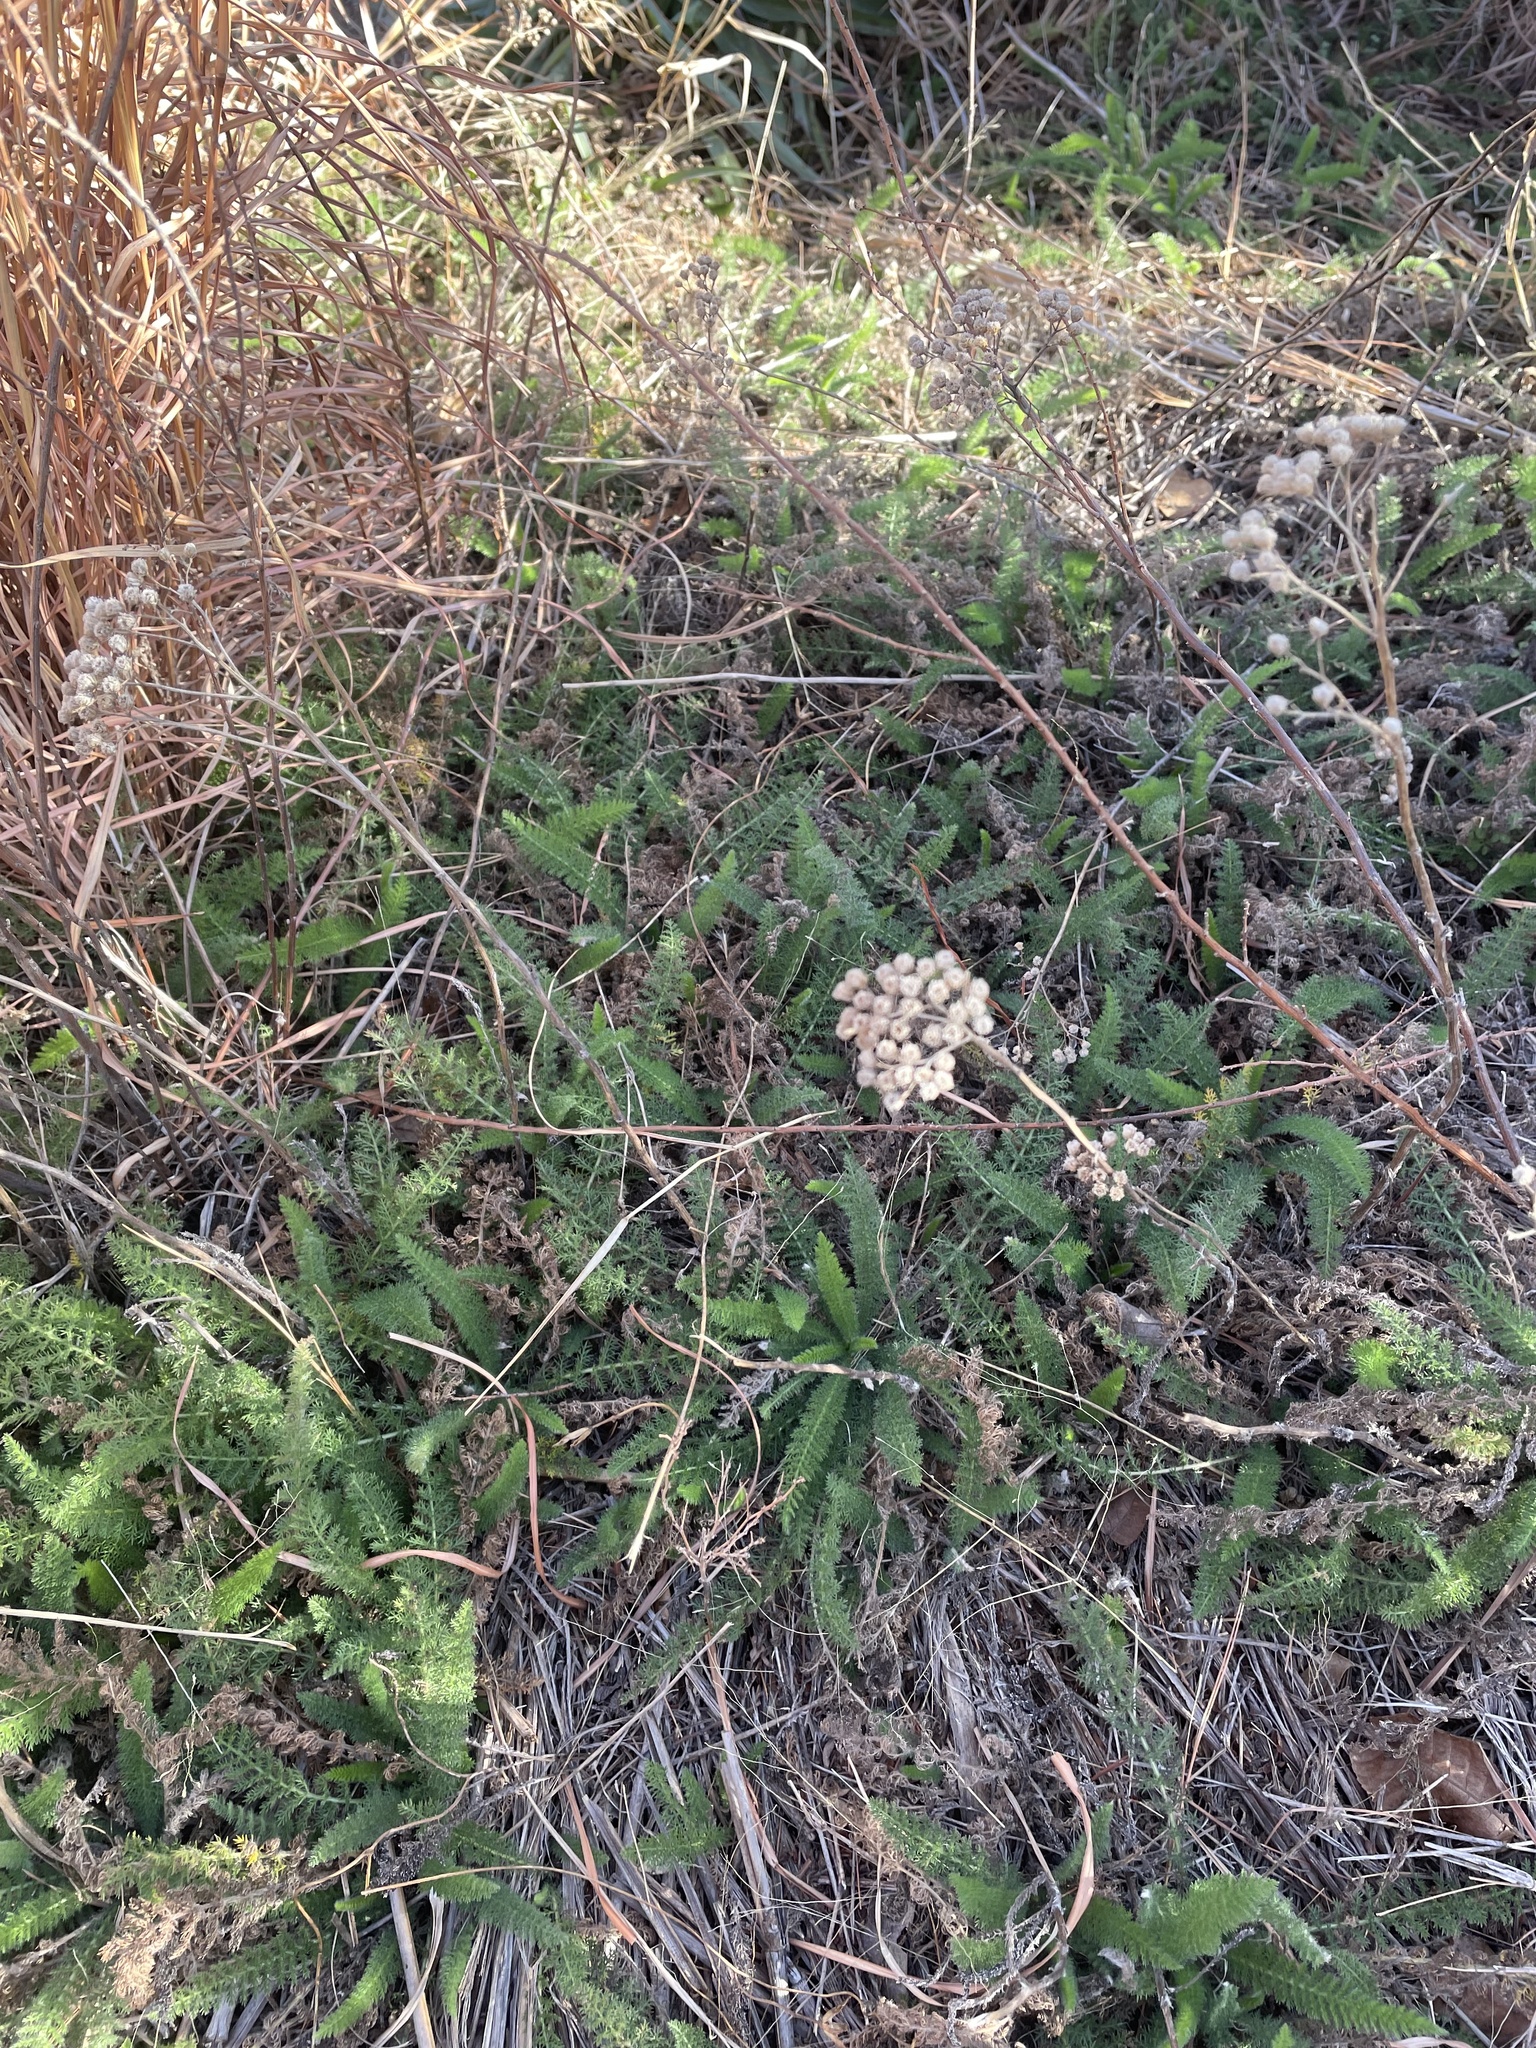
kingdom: Plantae
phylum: Tracheophyta
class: Magnoliopsida
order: Asterales
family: Asteraceae
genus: Achillea
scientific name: Achillea millefolium
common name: Yarrow
